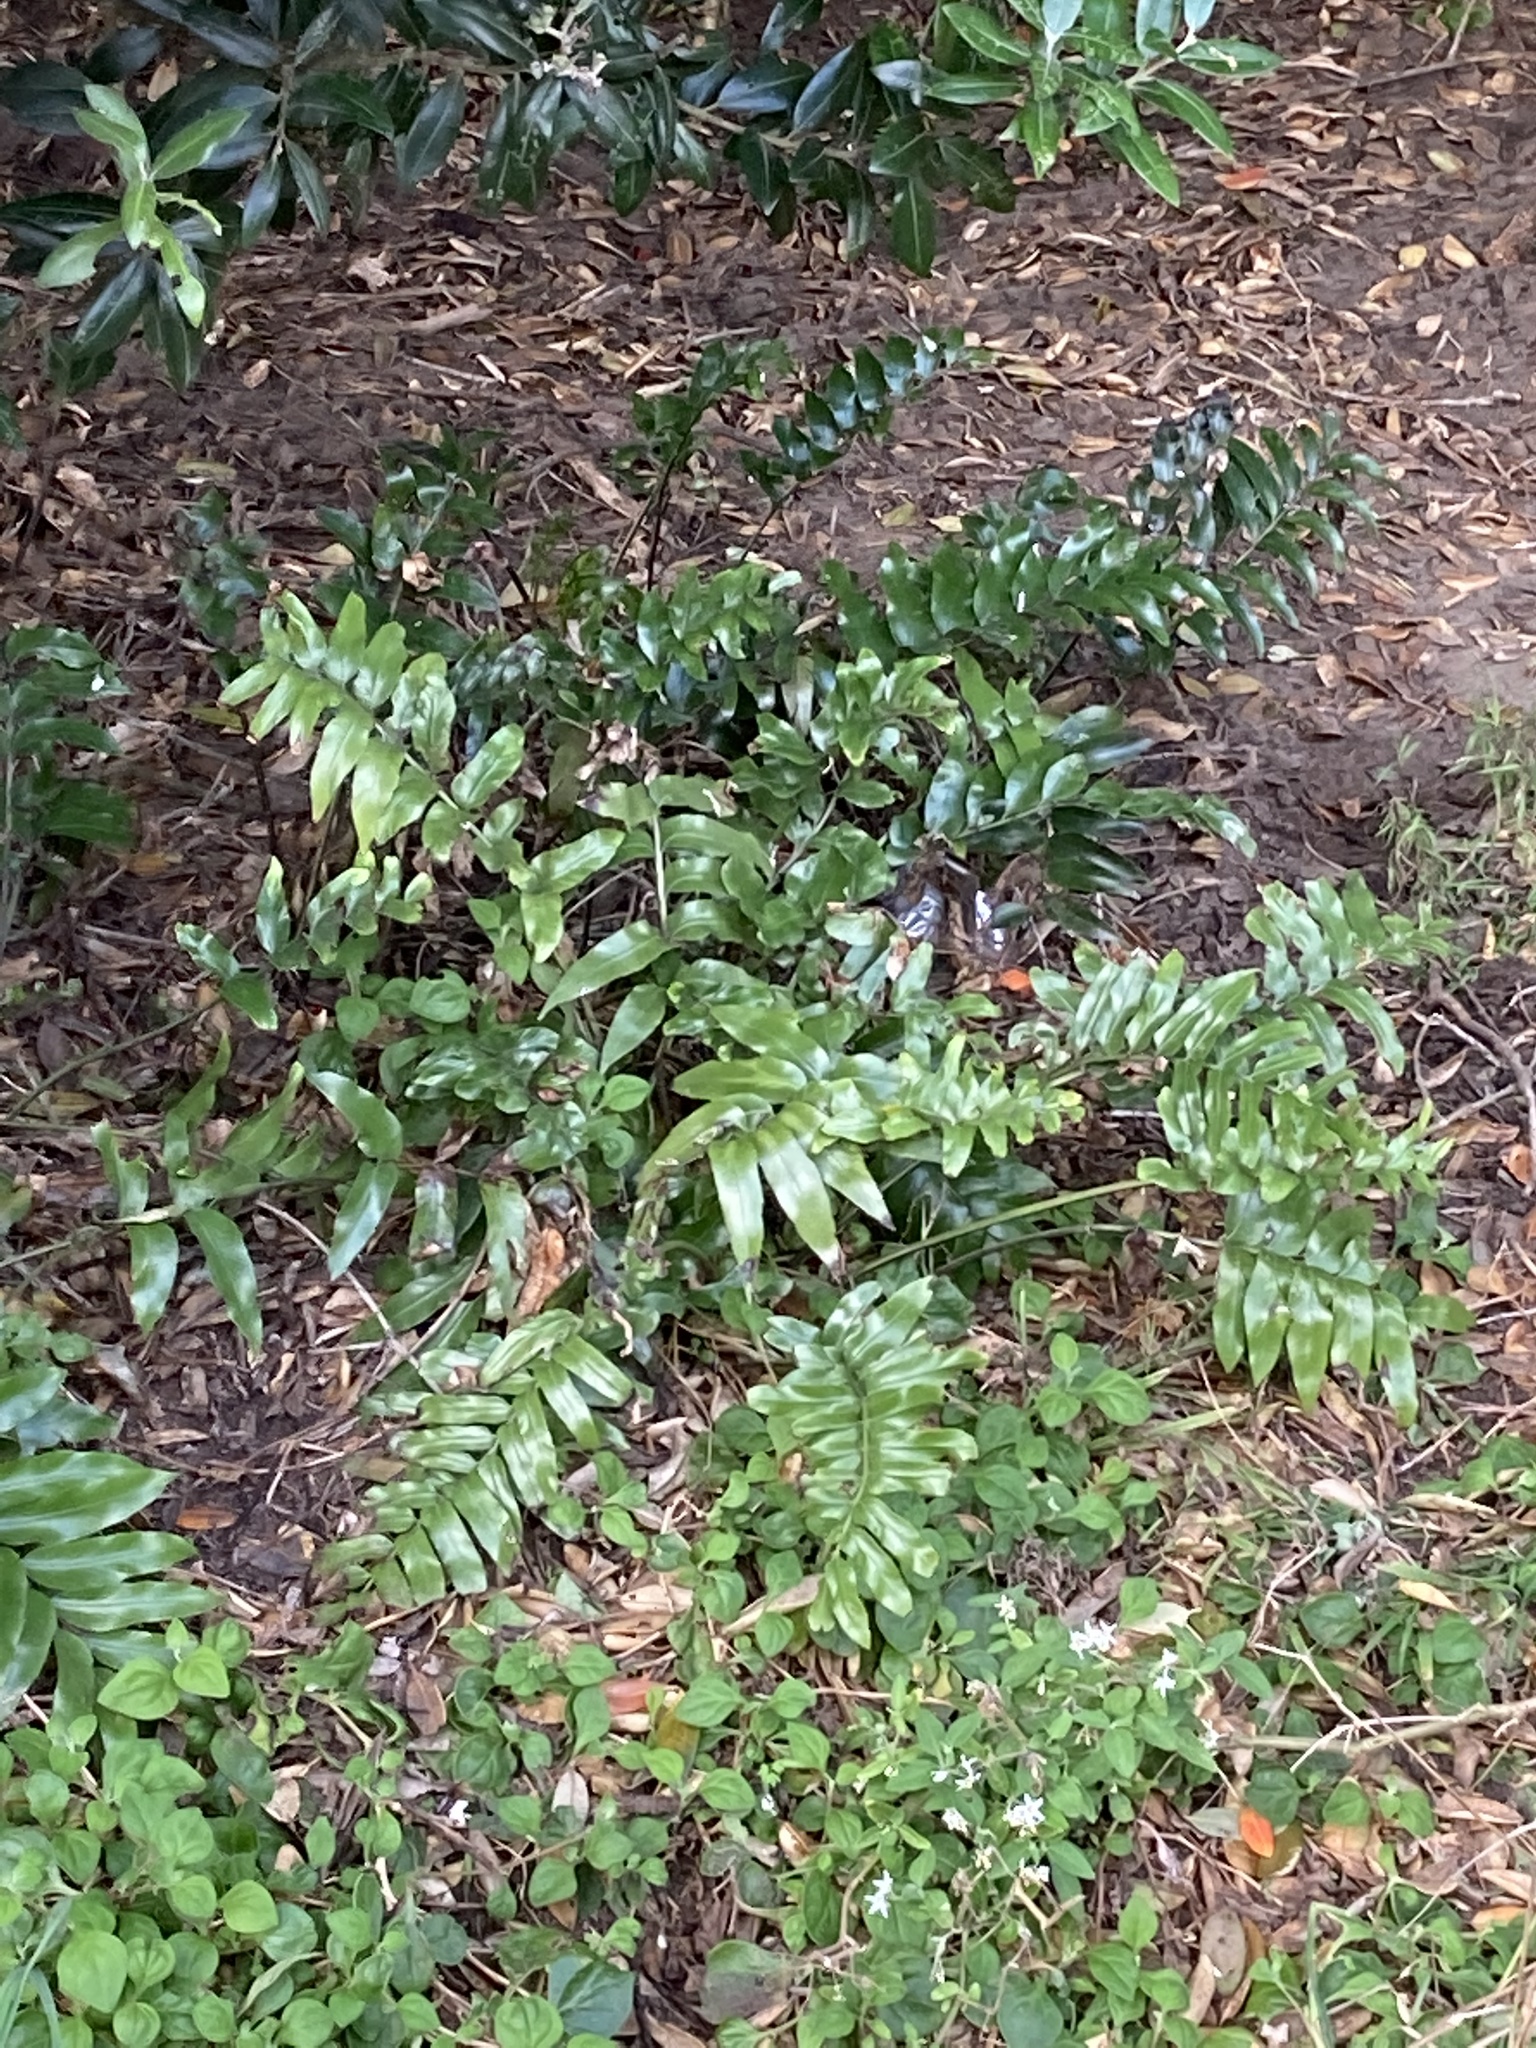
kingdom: Plantae
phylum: Tracheophyta
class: Polypodiopsida
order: Polypodiales
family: Aspleniaceae
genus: Asplenium
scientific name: Asplenium oblongifolium
